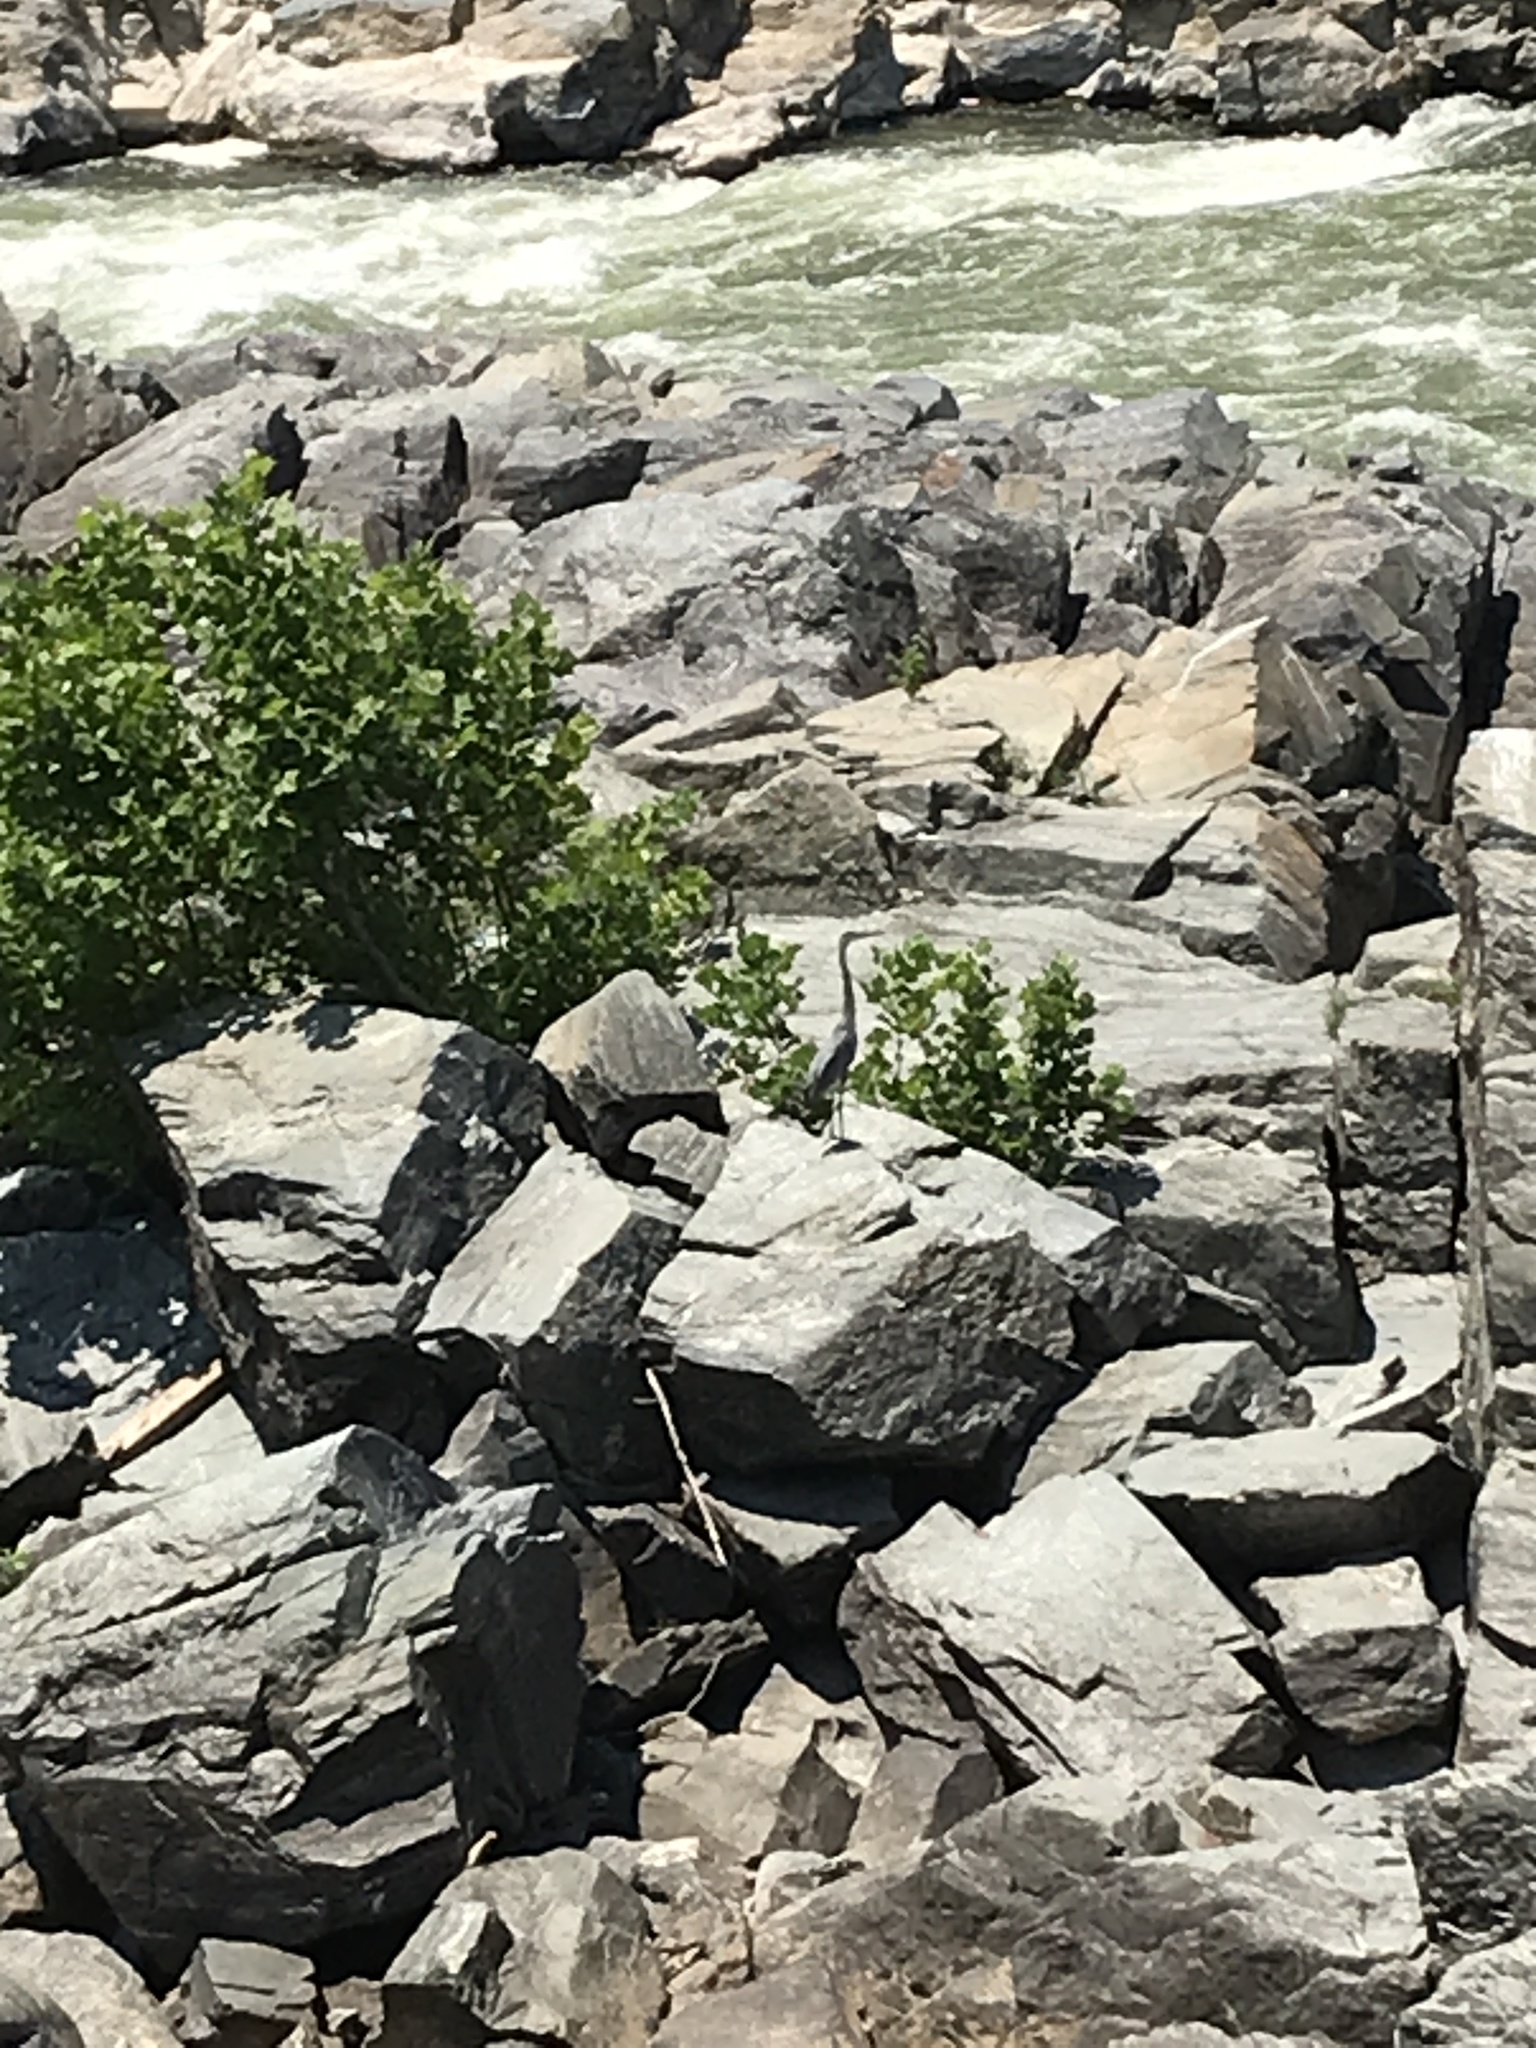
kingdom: Animalia
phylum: Chordata
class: Aves
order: Pelecaniformes
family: Ardeidae
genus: Ardea
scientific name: Ardea herodias
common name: Great blue heron
